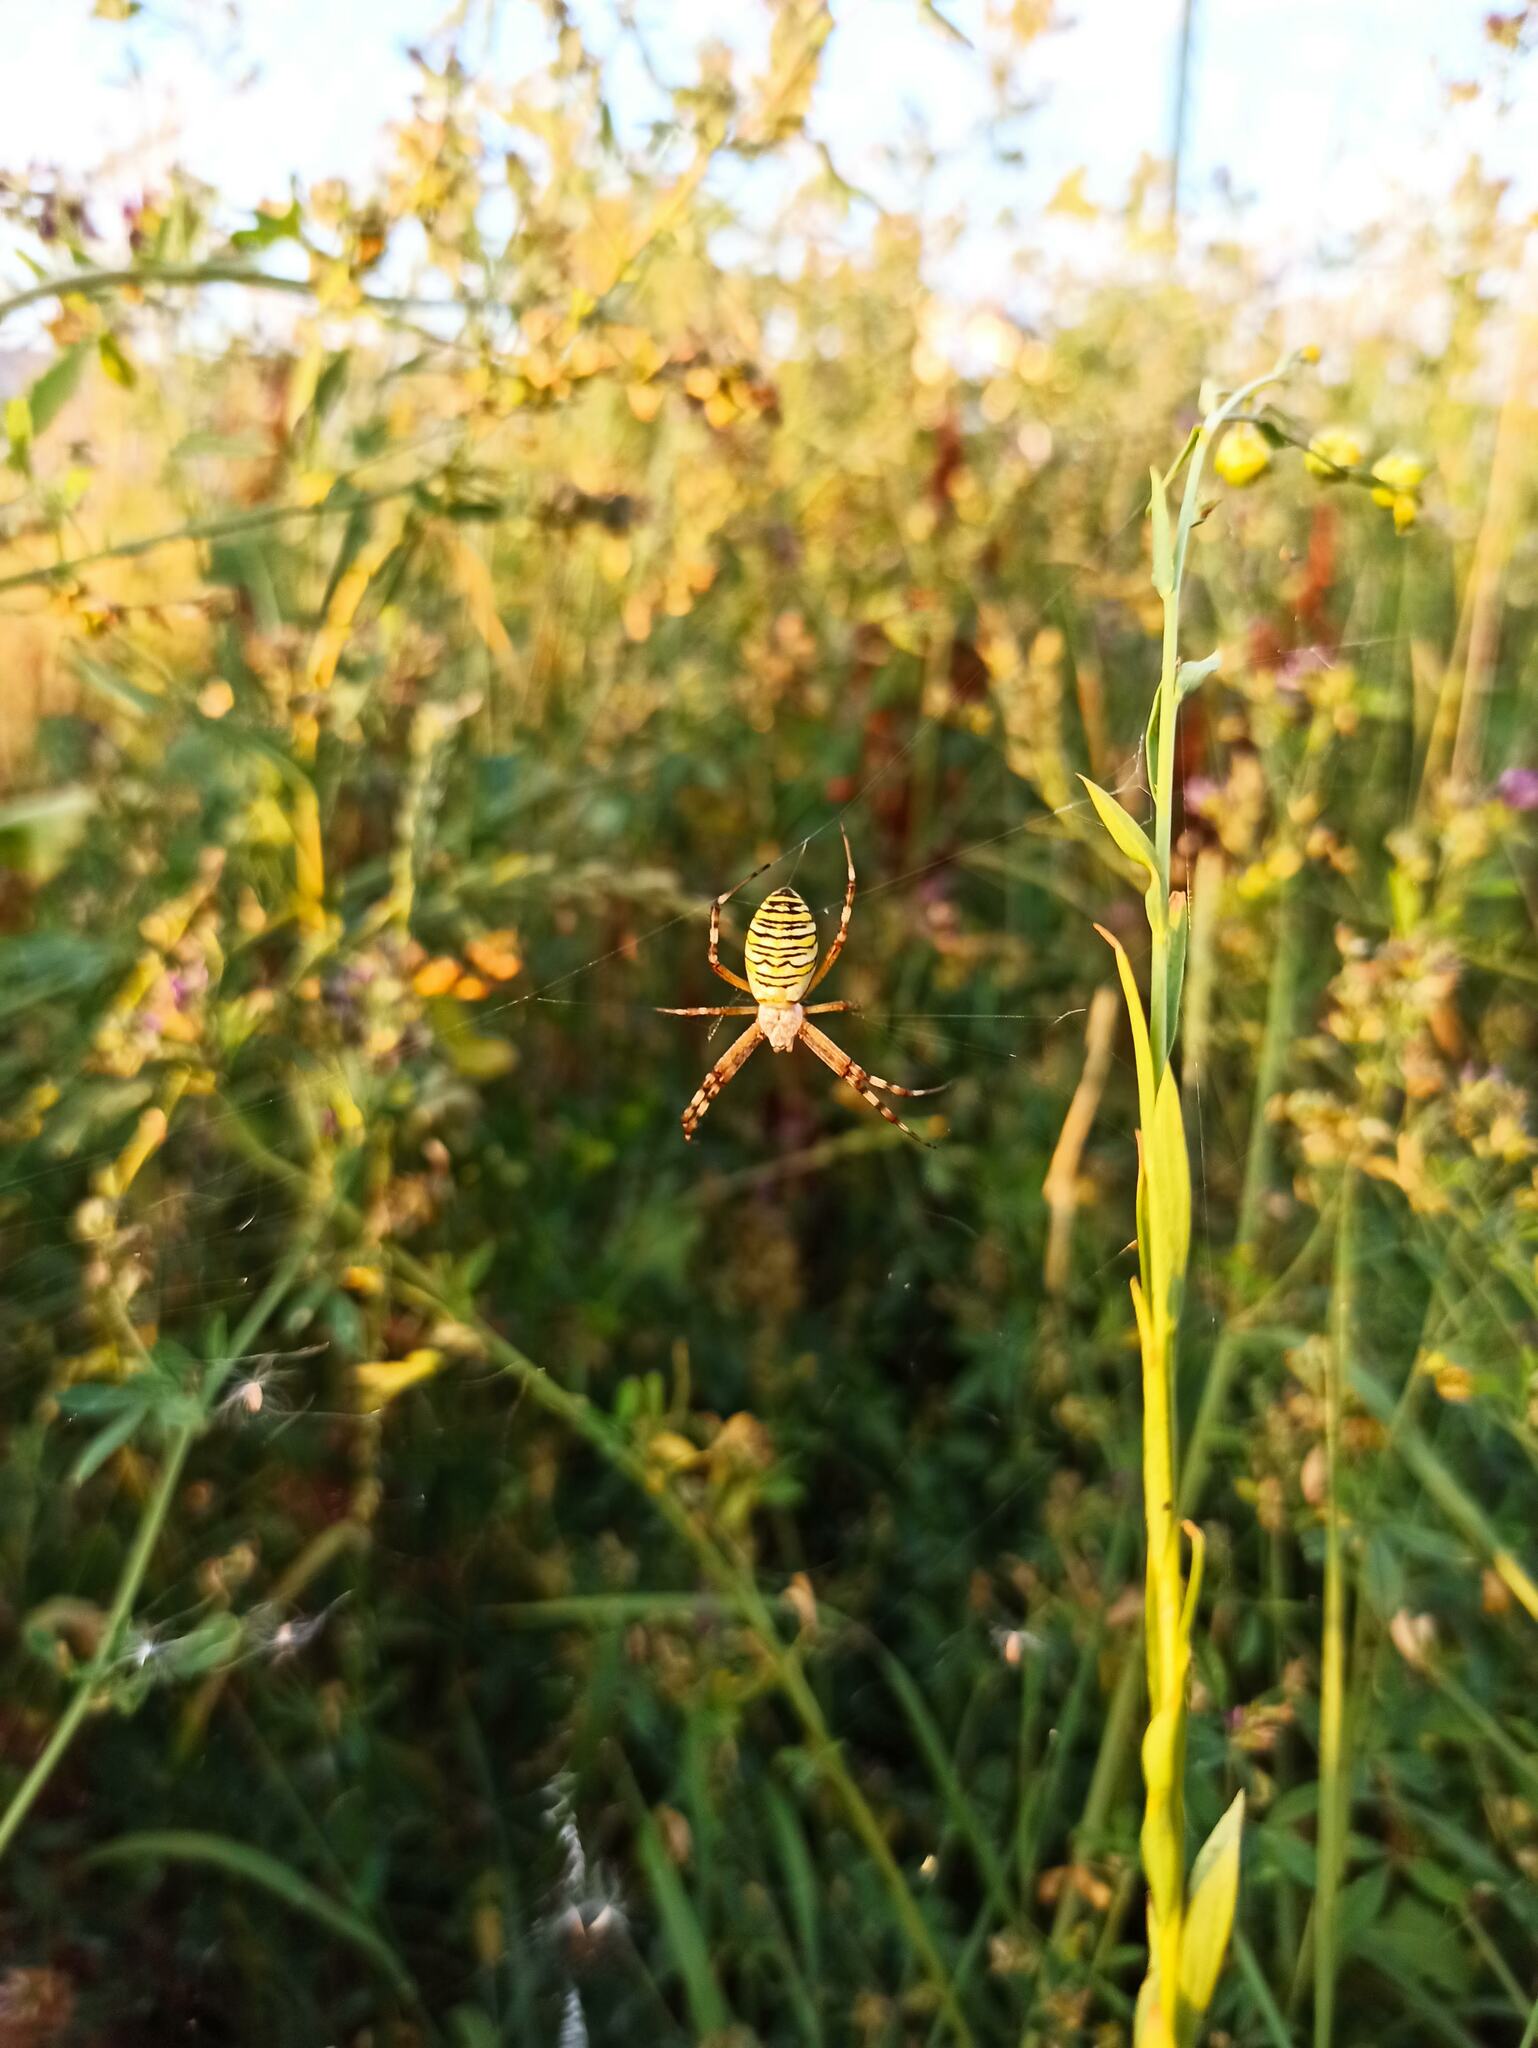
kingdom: Animalia
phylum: Arthropoda
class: Arachnida
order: Araneae
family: Araneidae
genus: Argiope
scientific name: Argiope bruennichi
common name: Wasp spider
